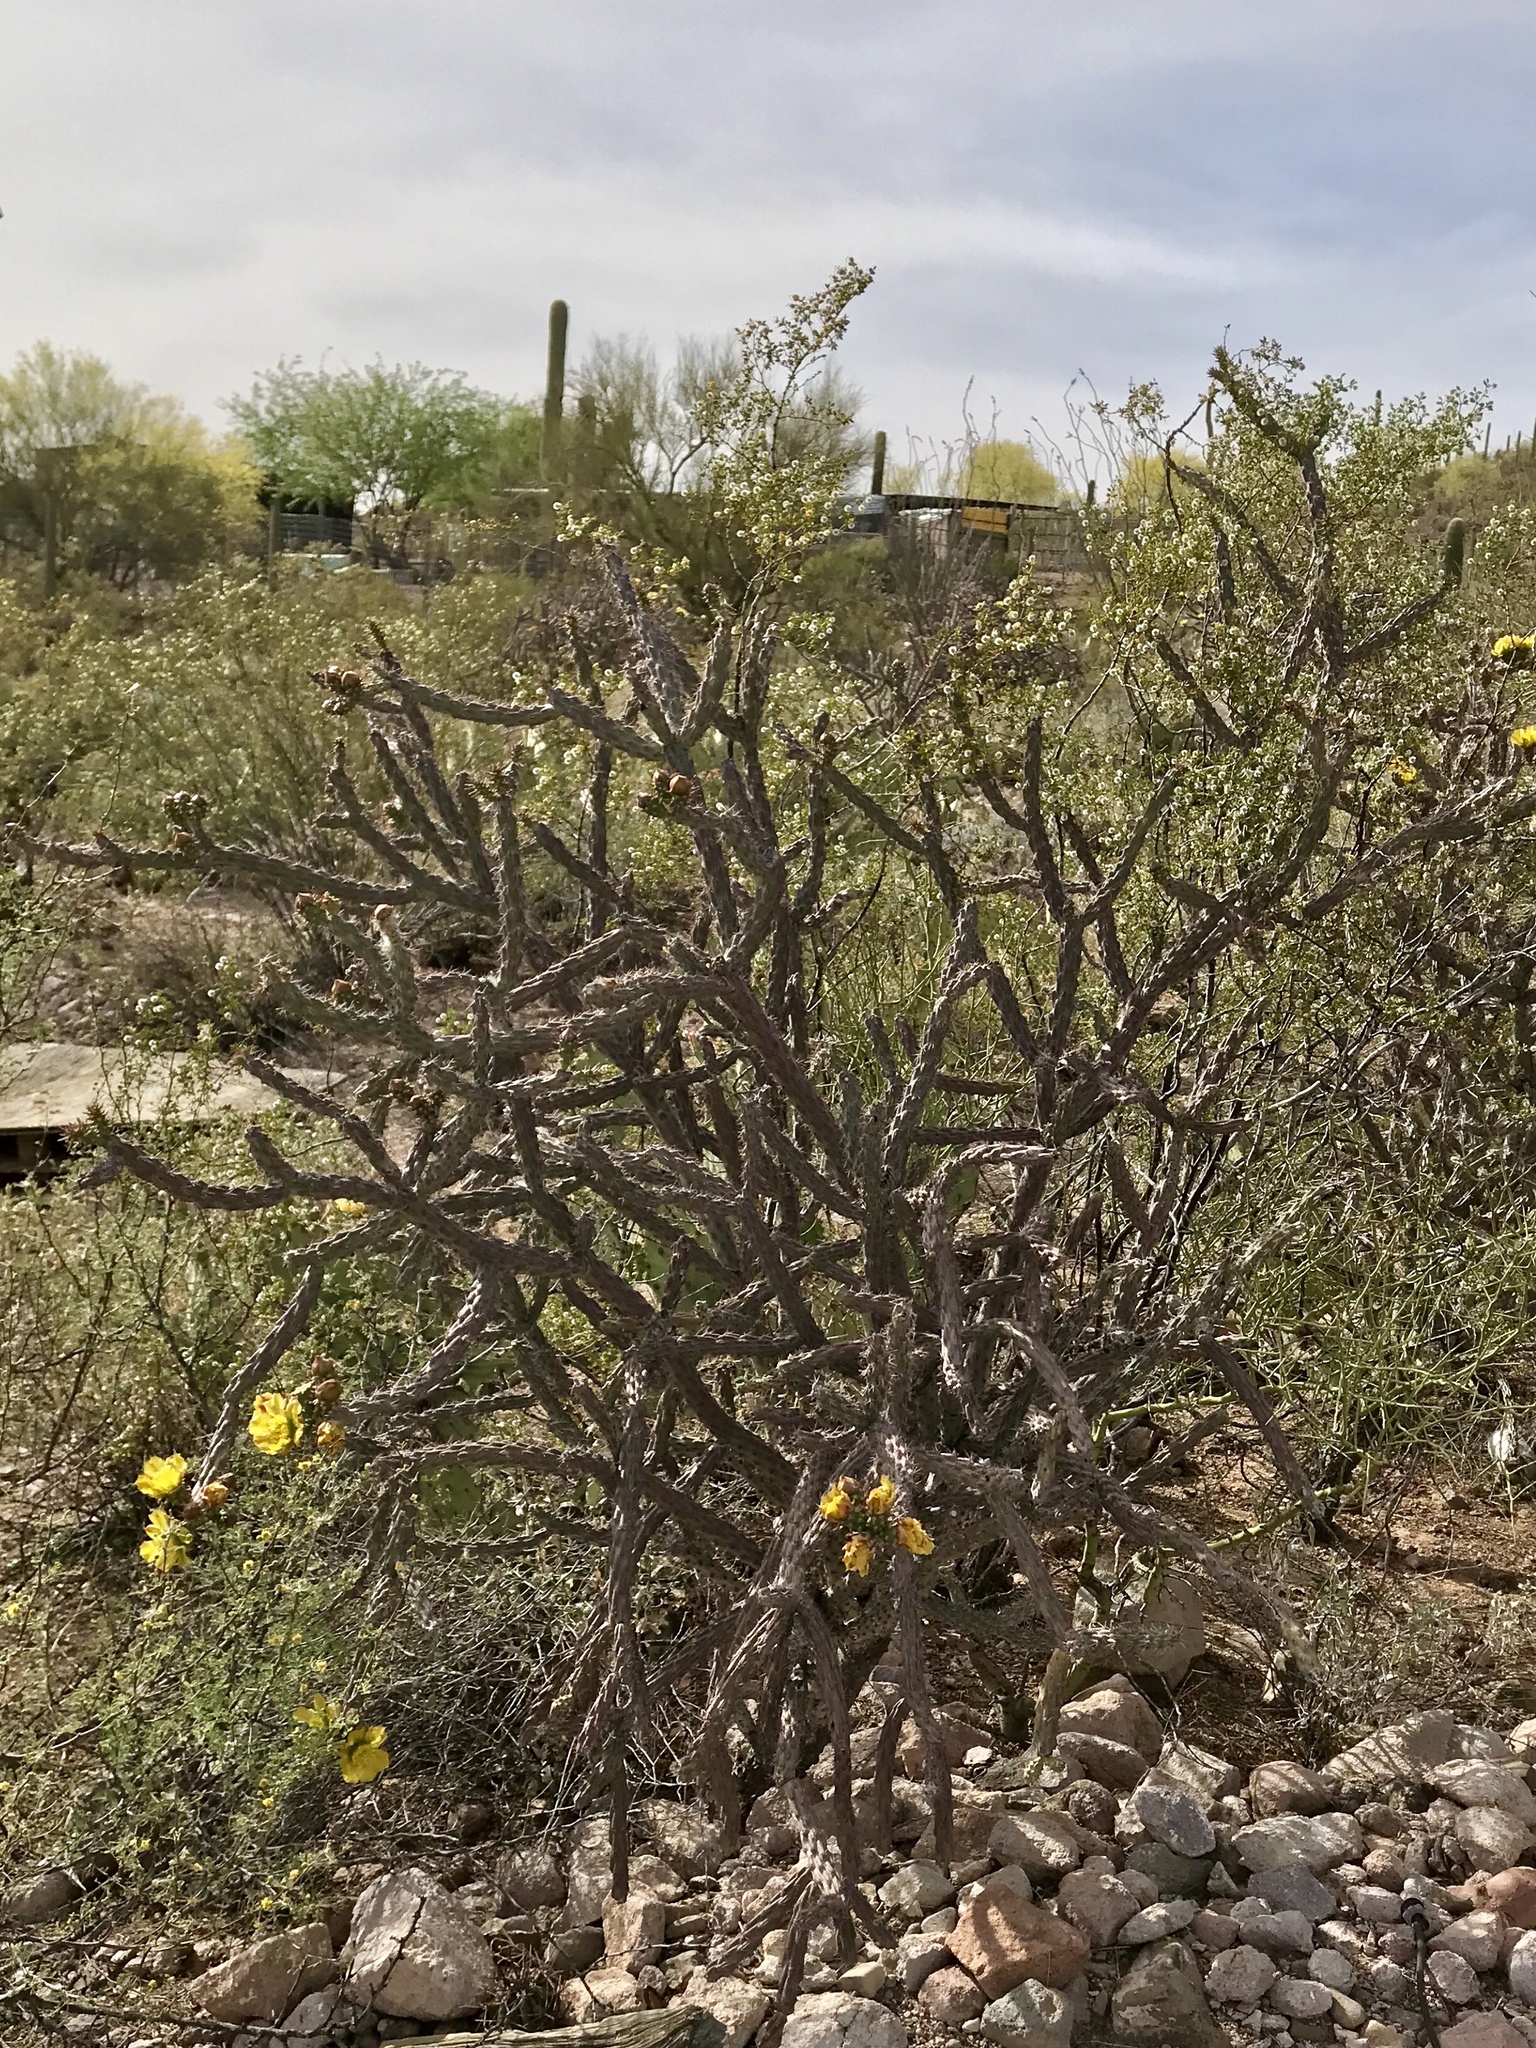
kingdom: Plantae
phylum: Tracheophyta
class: Magnoliopsida
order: Caryophyllales
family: Cactaceae
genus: Cylindropuntia
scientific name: Cylindropuntia thurberi
